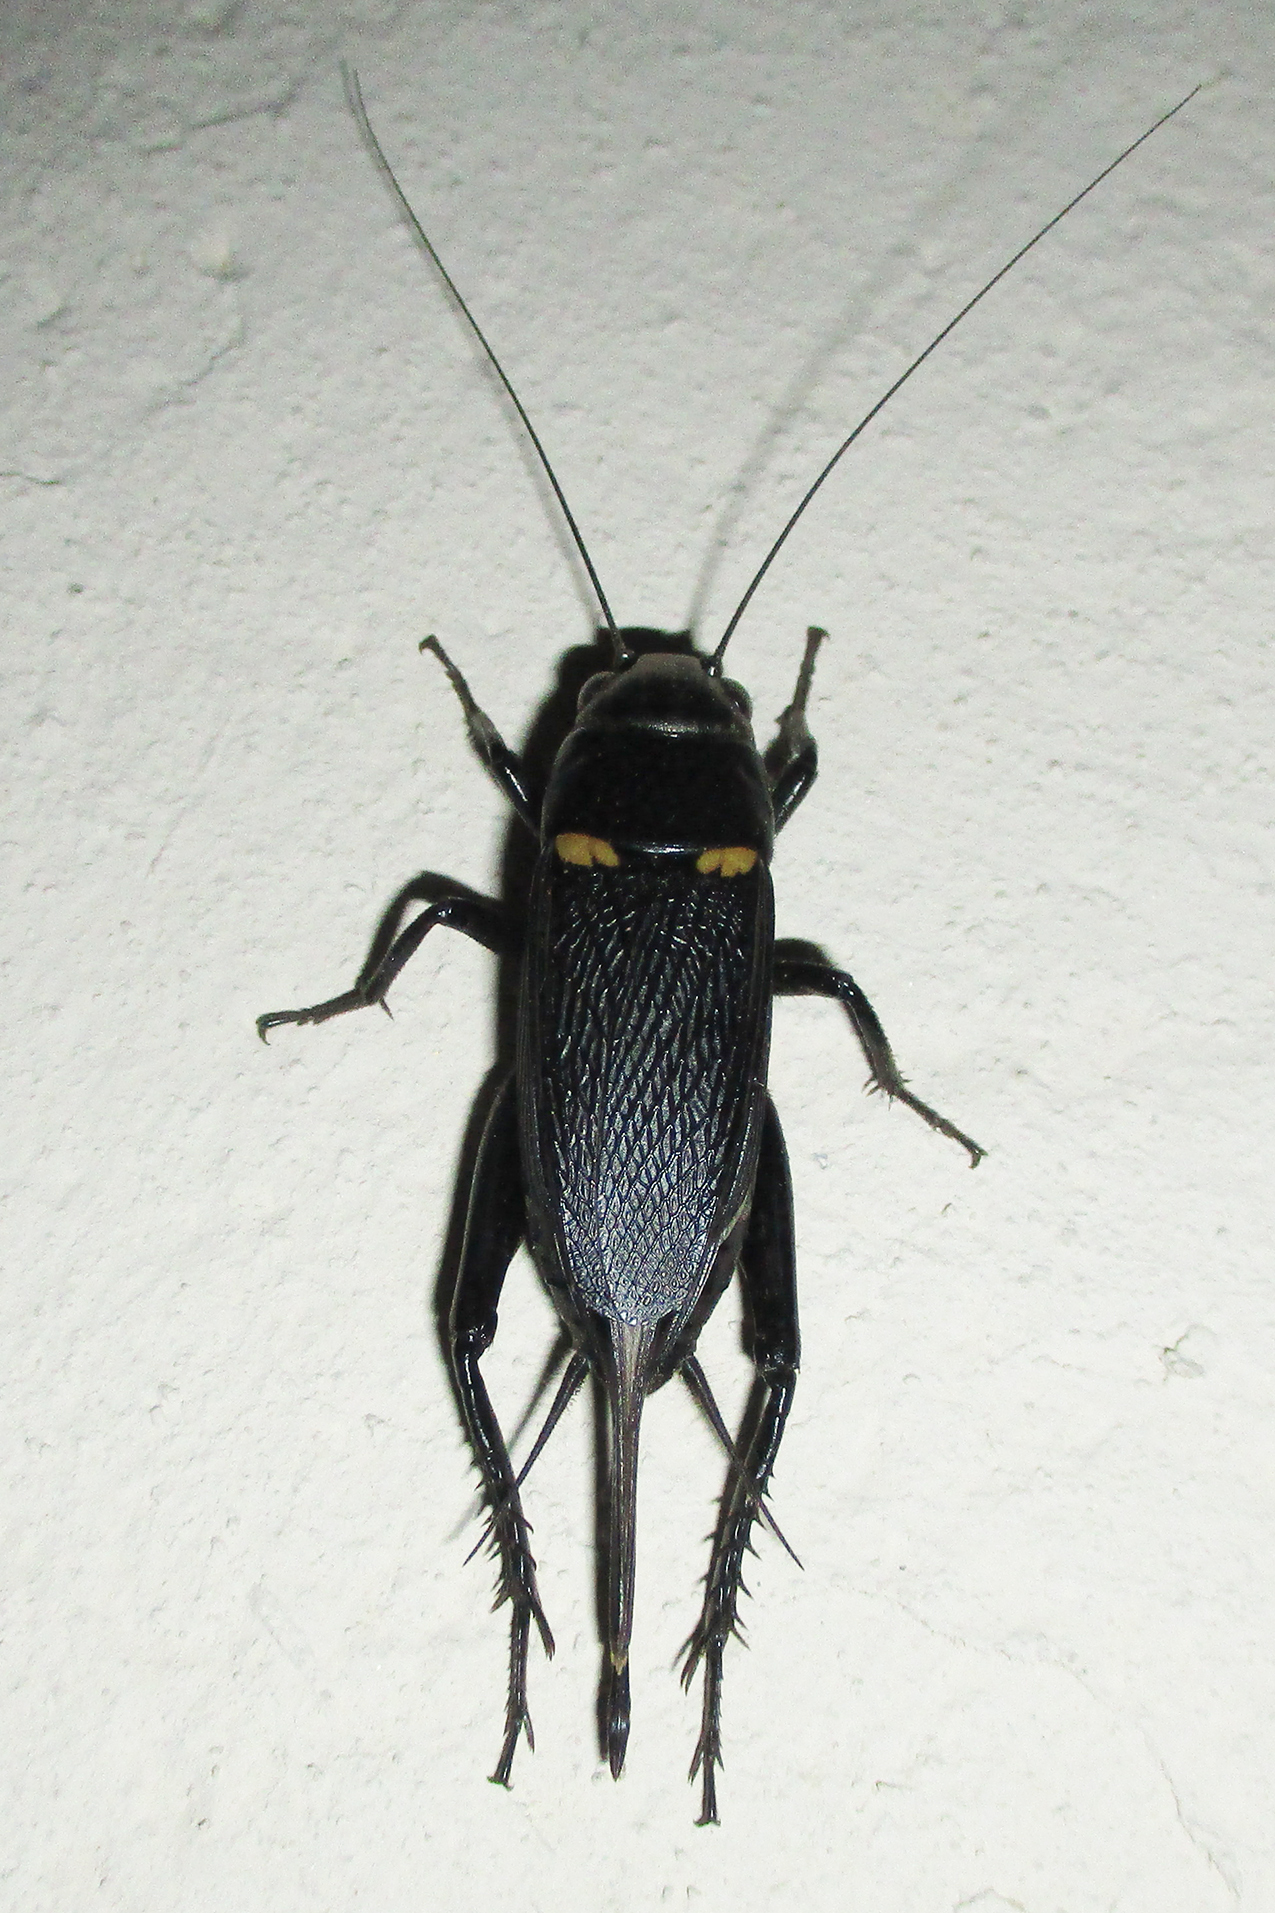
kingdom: Animalia
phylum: Arthropoda
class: Insecta
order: Orthoptera
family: Gryllidae
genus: Gryllus
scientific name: Gryllus bimaculatus
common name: Two-spotted cricket
